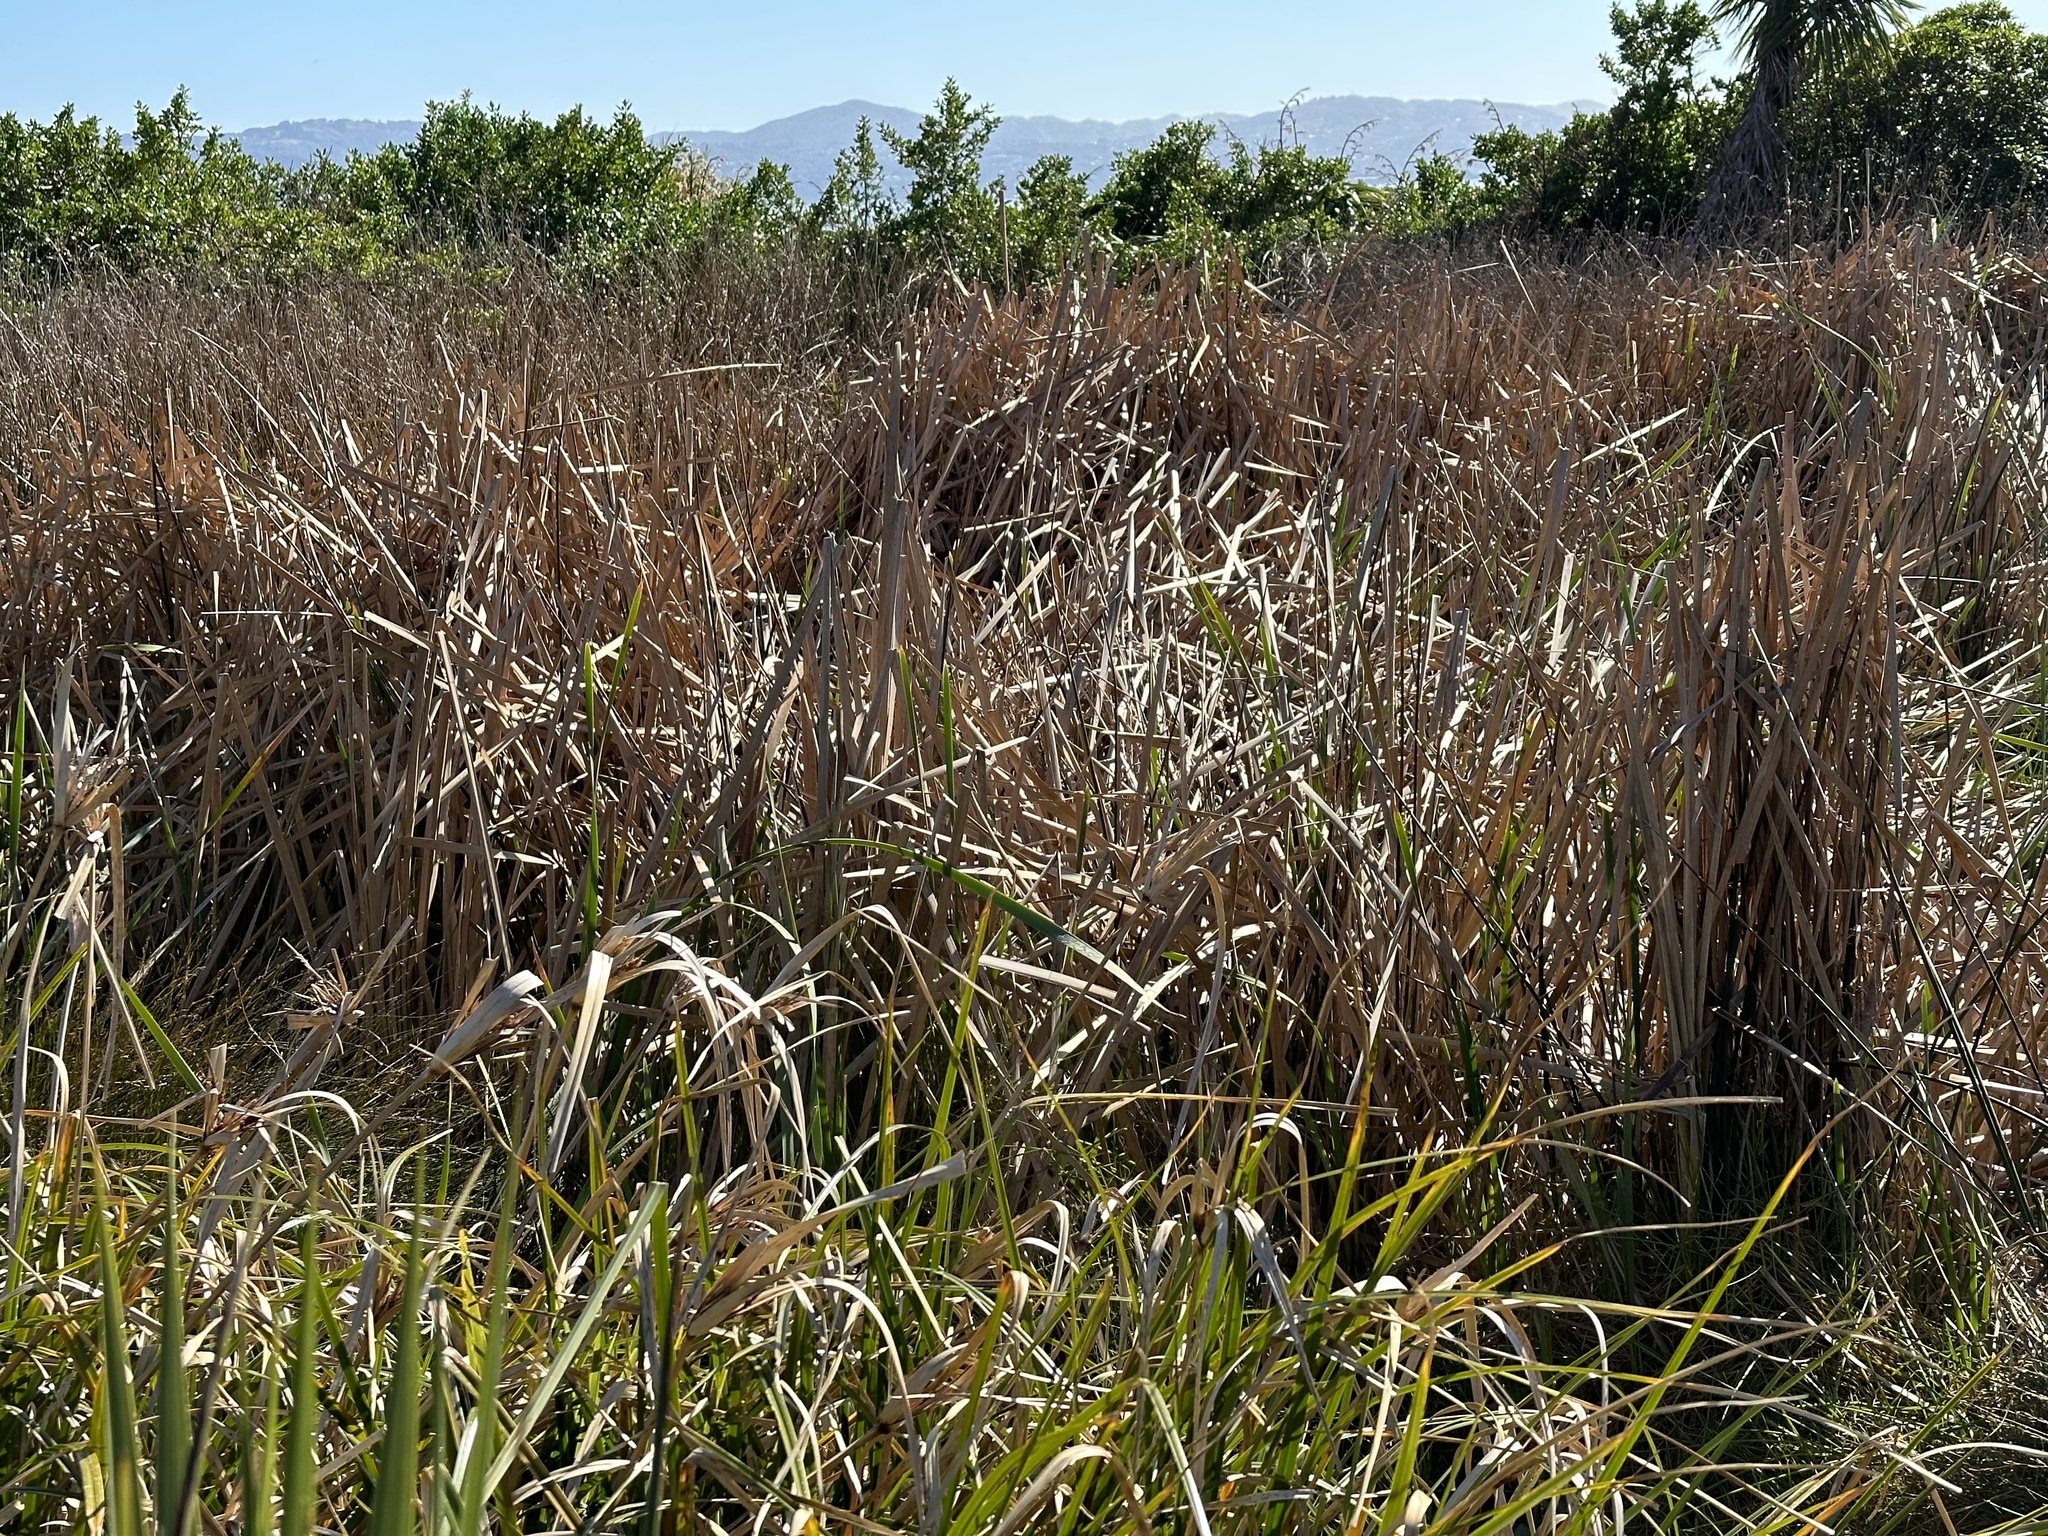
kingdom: Plantae
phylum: Tracheophyta
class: Liliopsida
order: Poales
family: Typhaceae
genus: Typha
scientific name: Typha orientalis
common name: Bullrush
